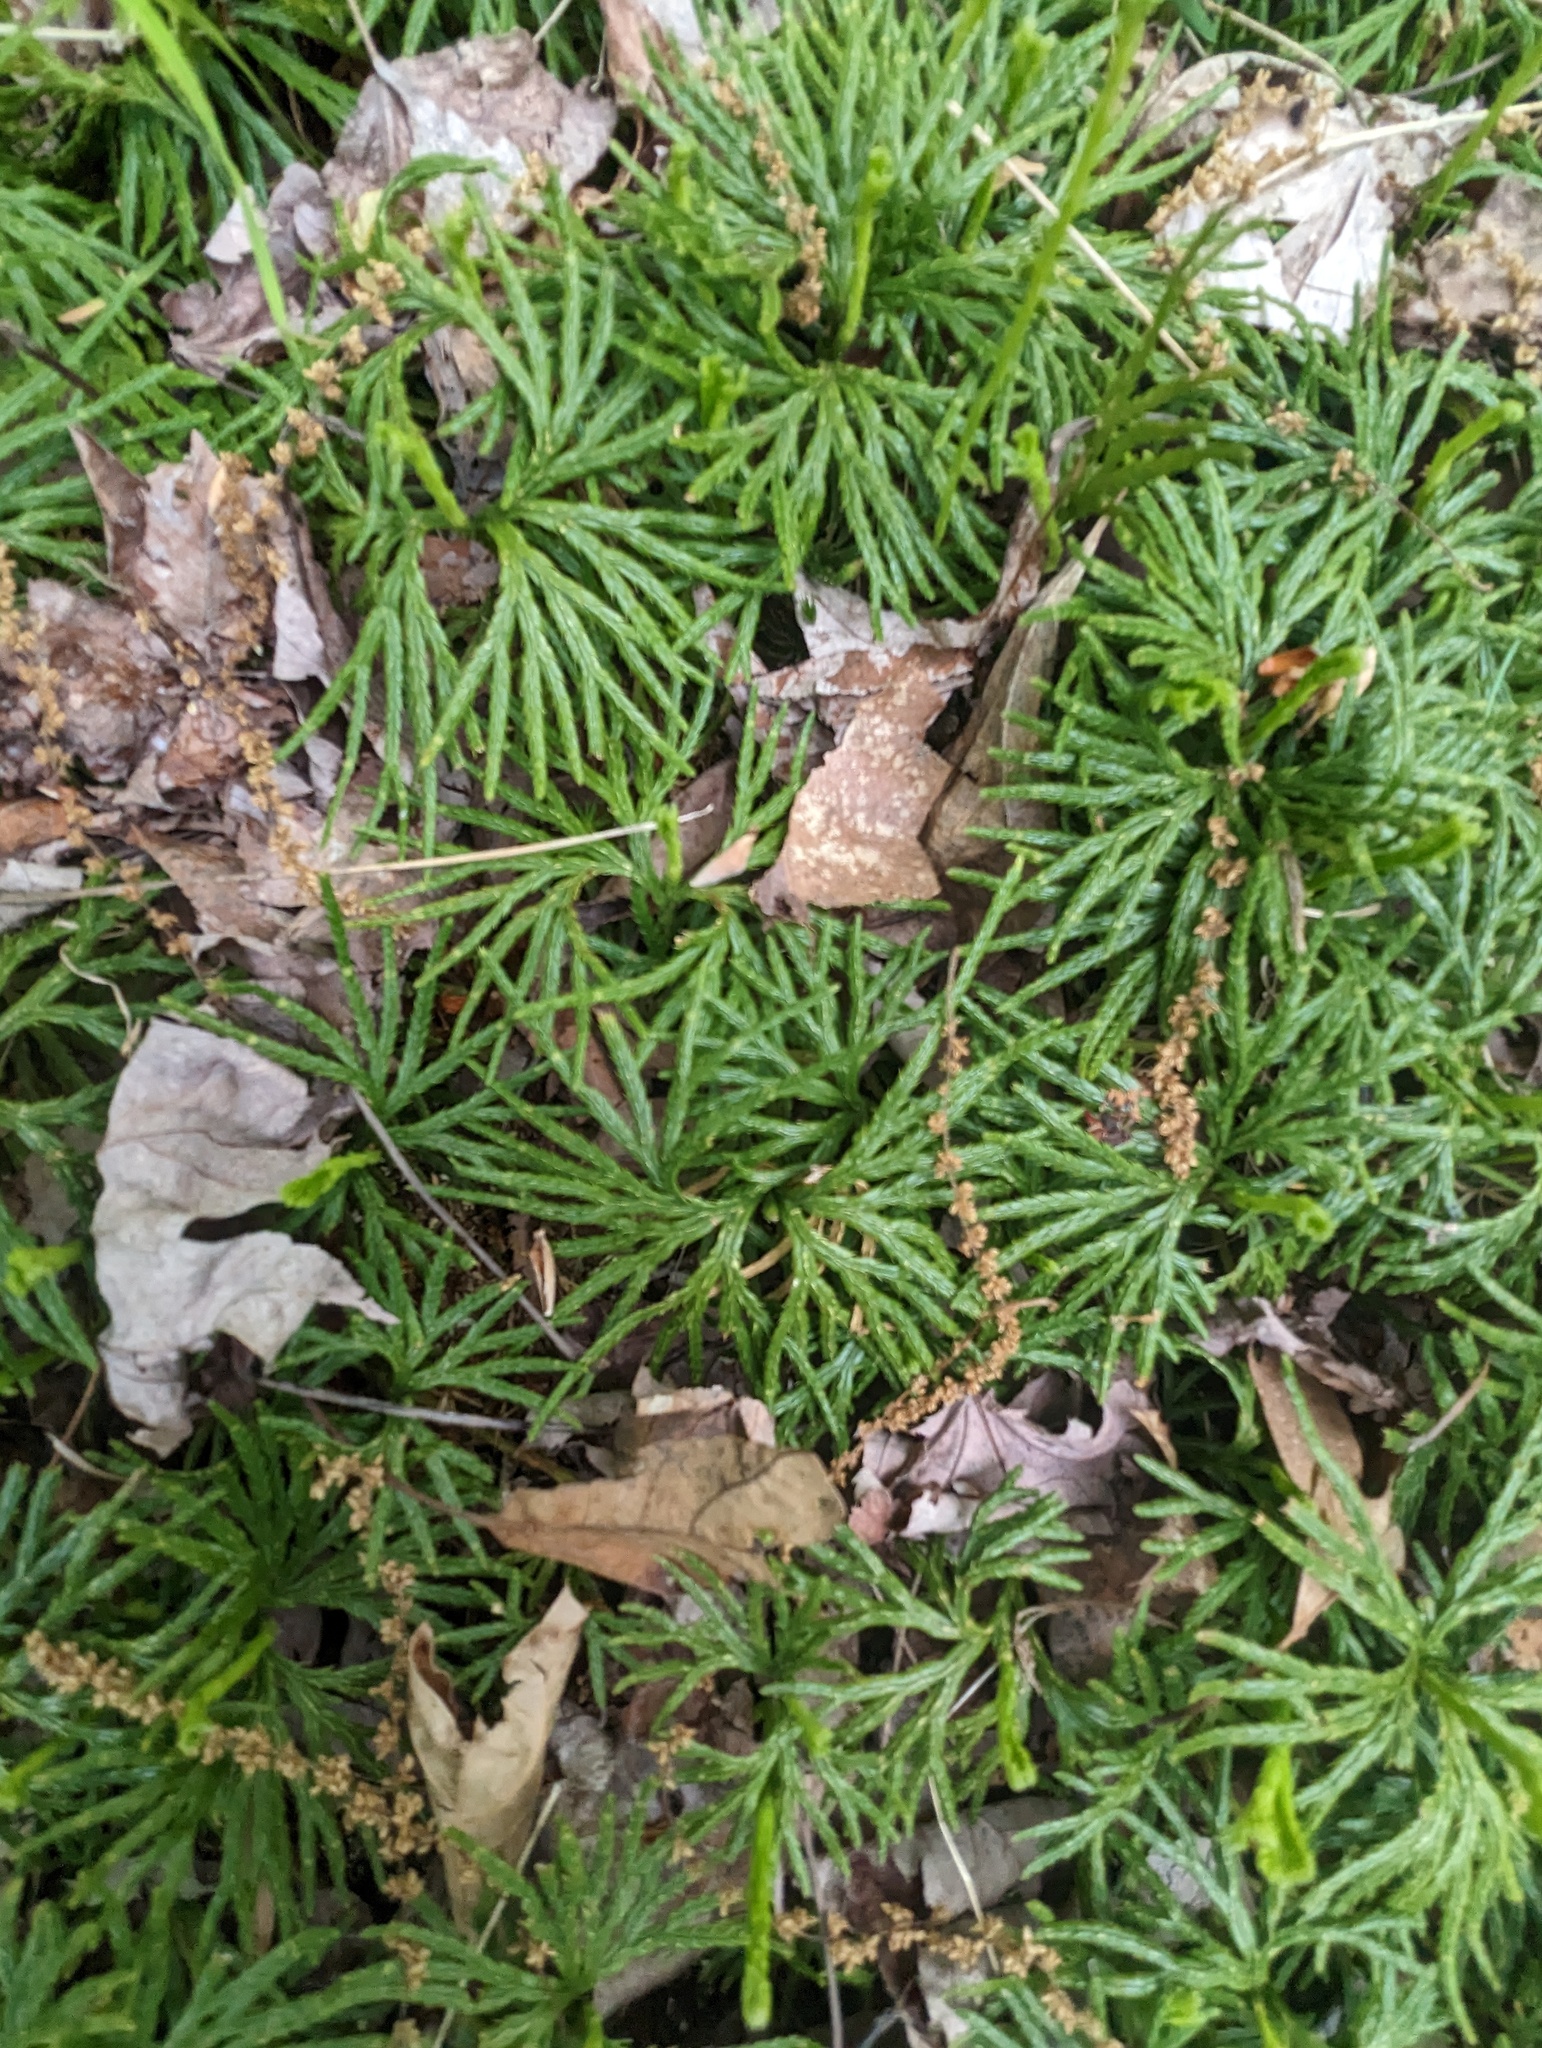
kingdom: Plantae
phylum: Tracheophyta
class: Lycopodiopsida
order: Lycopodiales
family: Lycopodiaceae
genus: Diphasiastrum
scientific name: Diphasiastrum digitatum
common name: Southern running-pine
